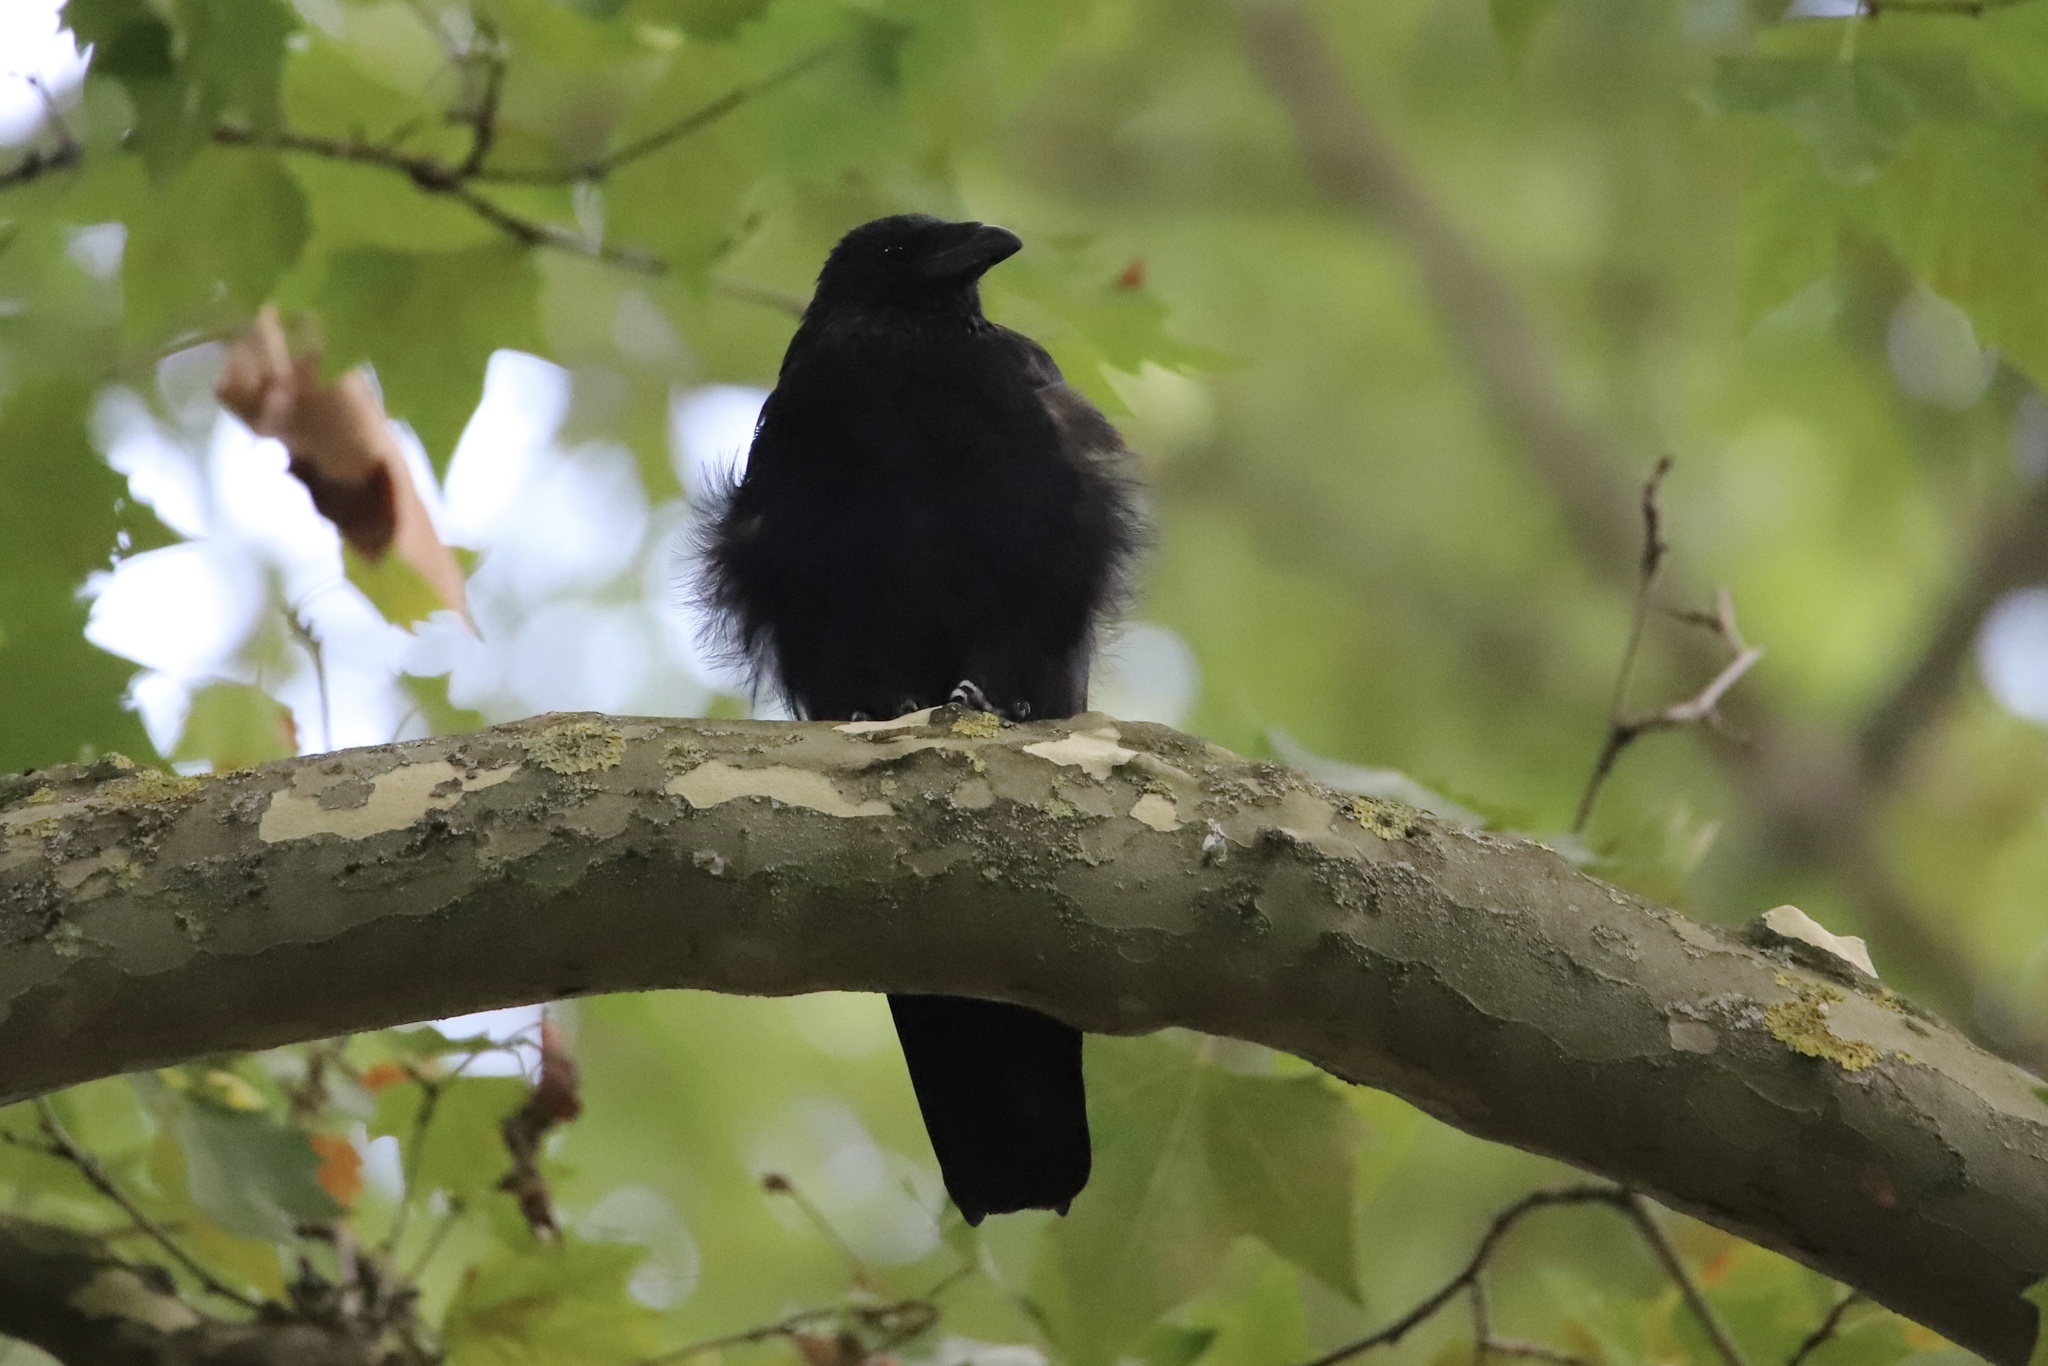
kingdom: Animalia
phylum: Chordata
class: Aves
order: Passeriformes
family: Corvidae
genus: Corvus
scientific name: Corvus corone
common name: Carrion crow
